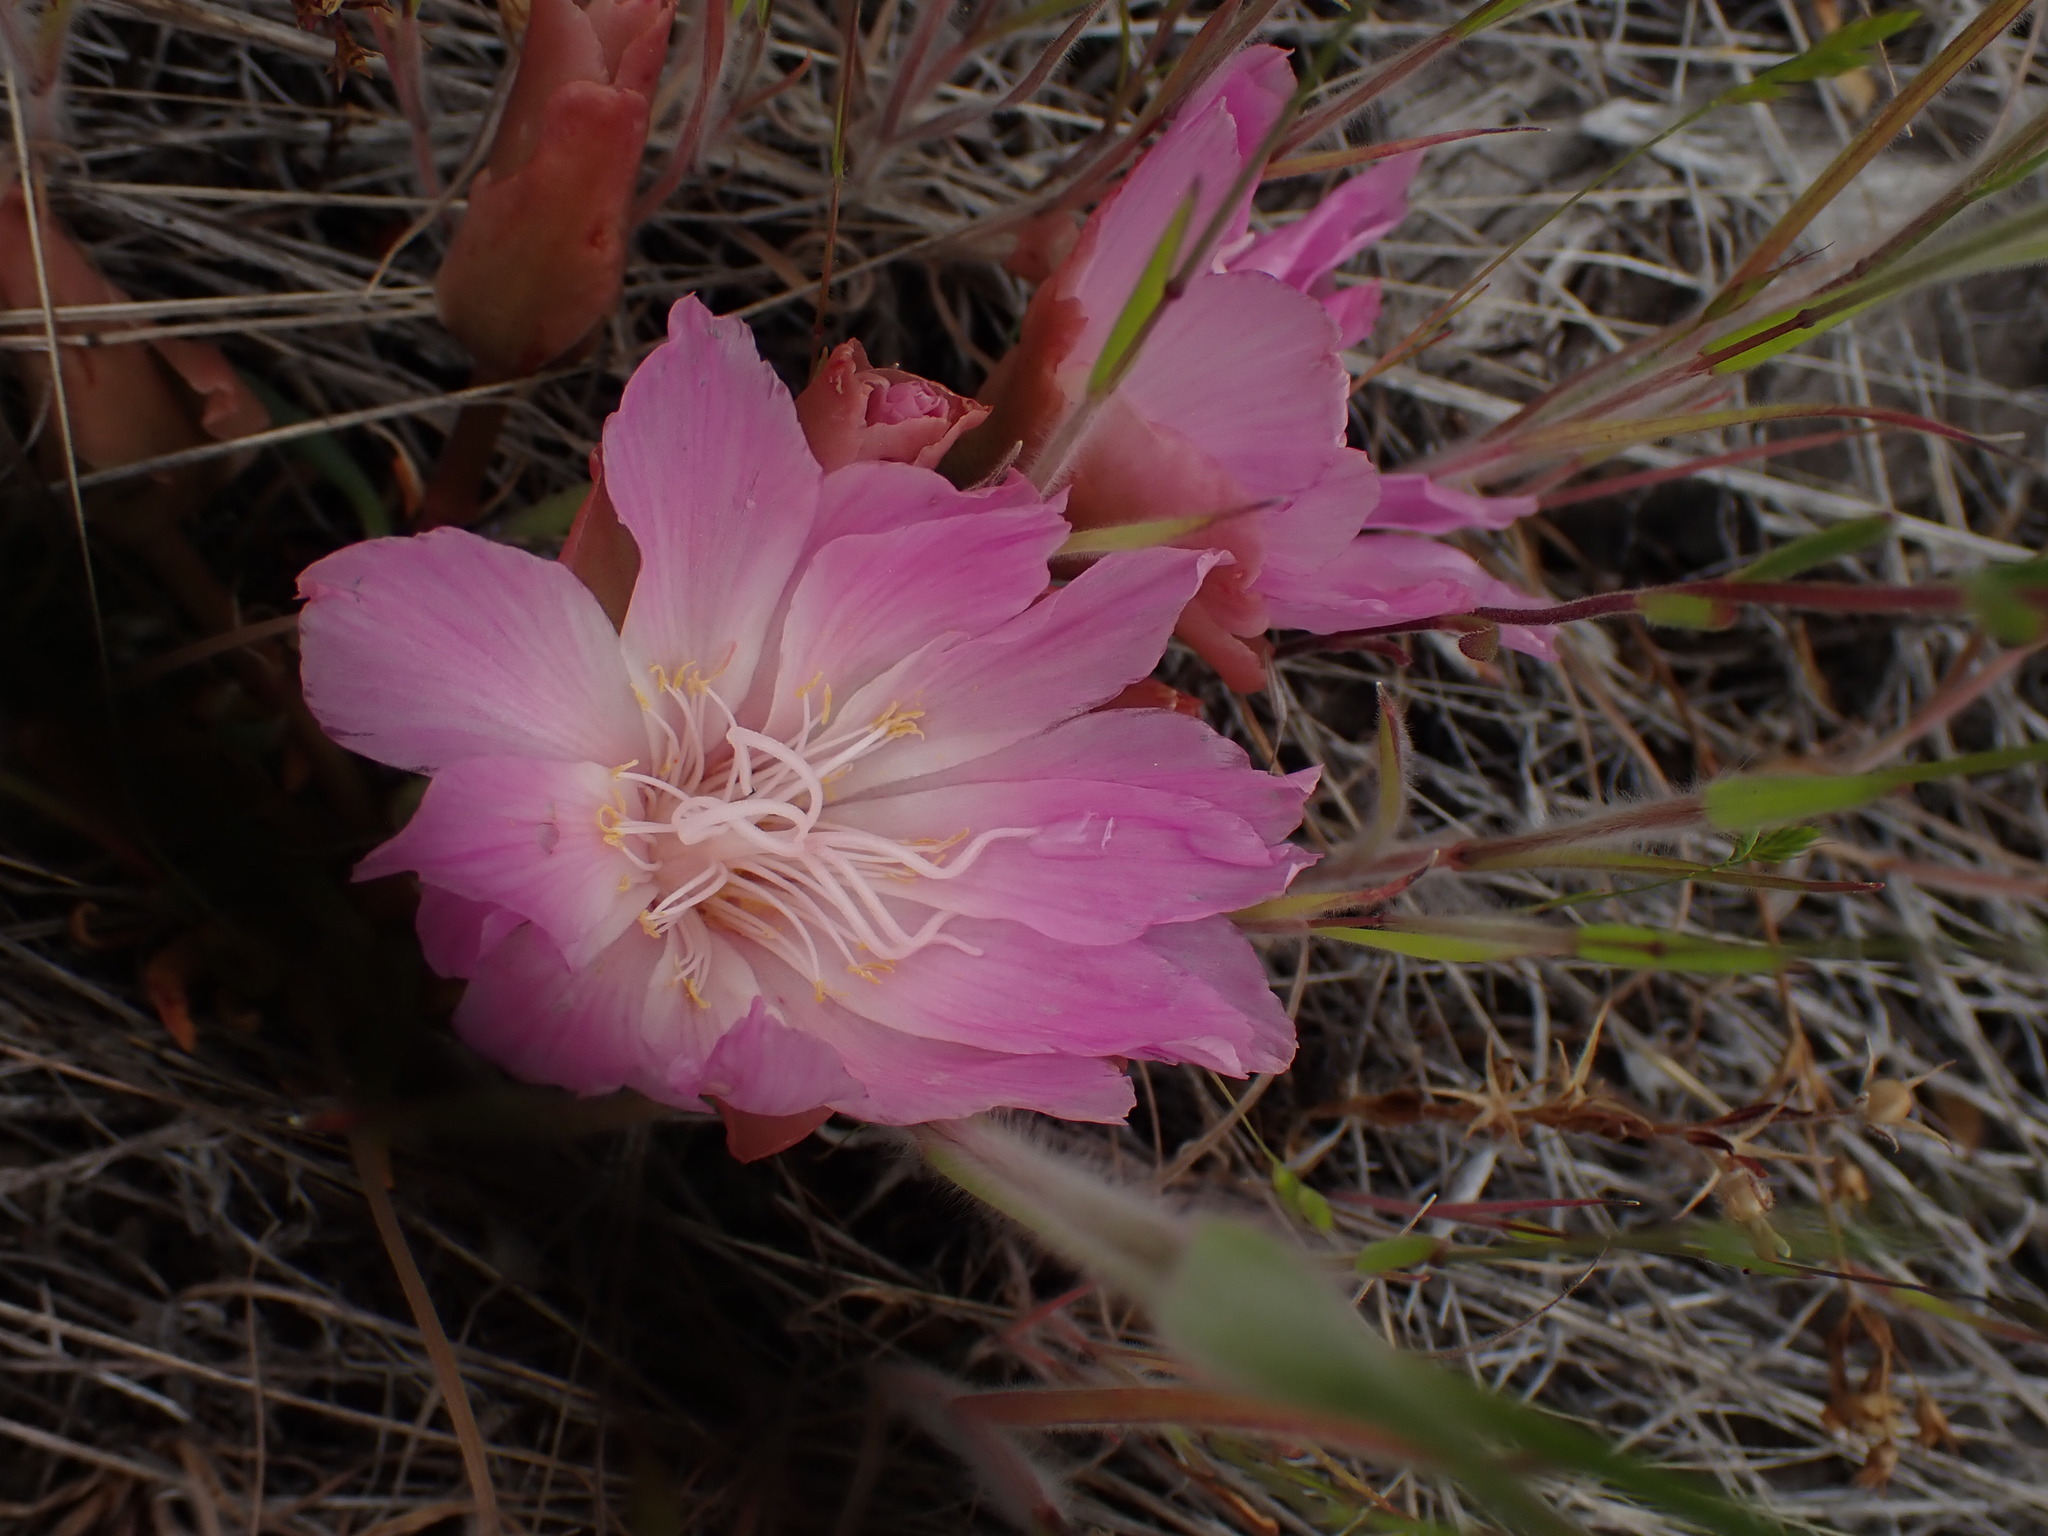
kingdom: Plantae
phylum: Tracheophyta
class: Magnoliopsida
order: Caryophyllales
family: Montiaceae
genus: Lewisia
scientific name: Lewisia rediviva
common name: Bitter-root
